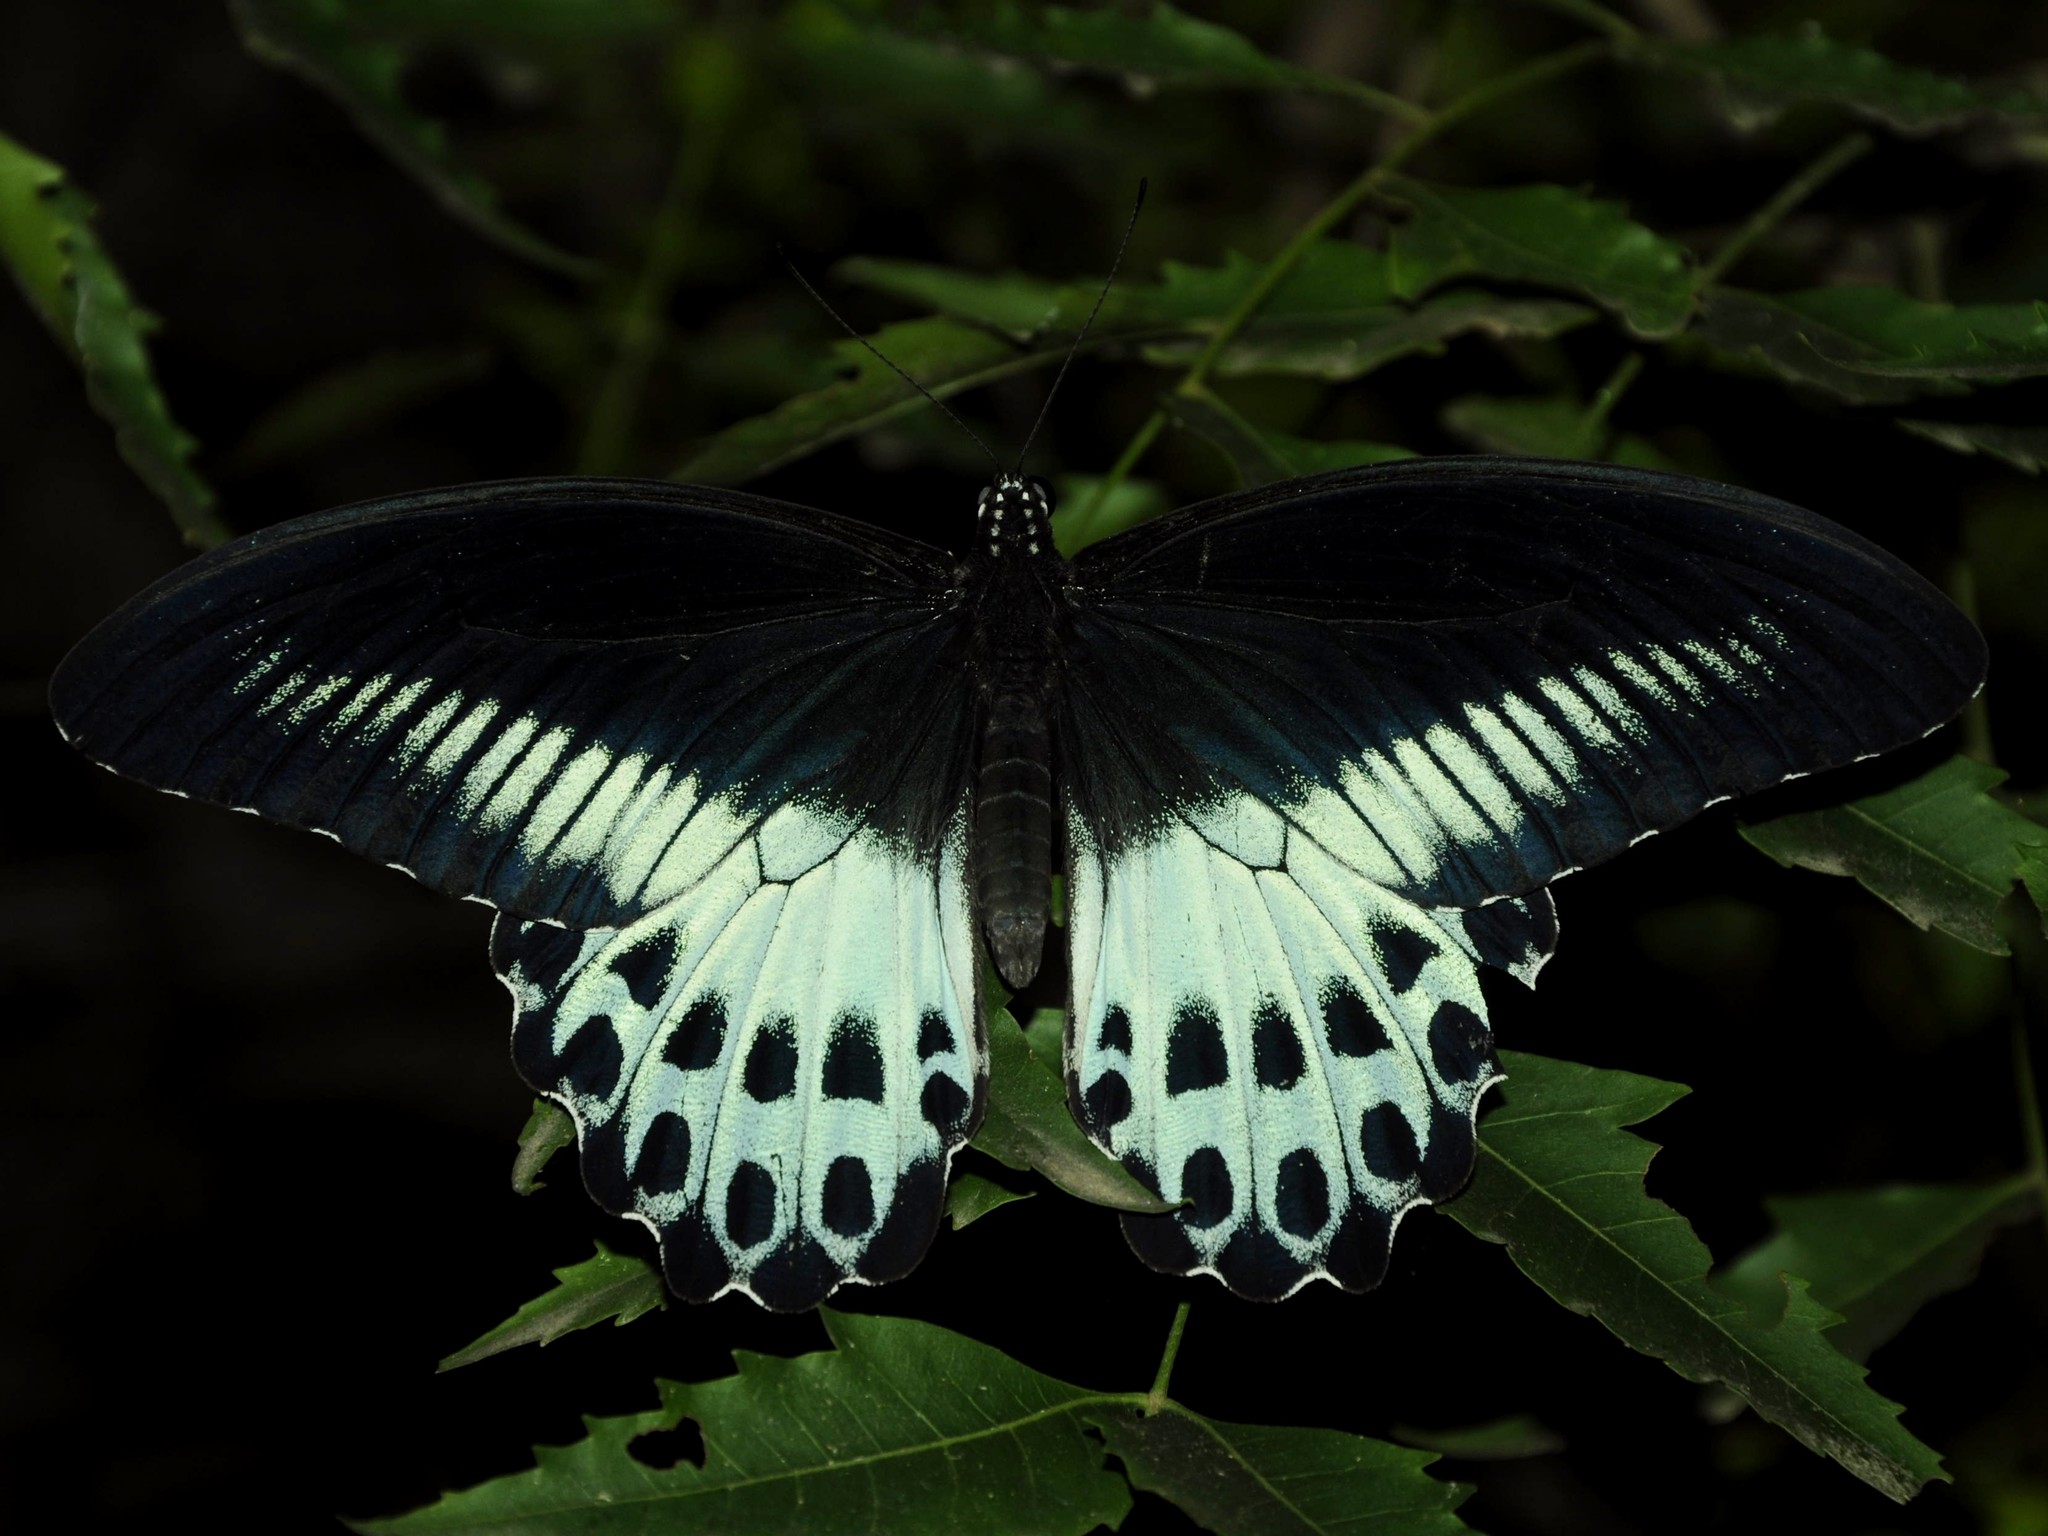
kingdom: Animalia
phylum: Arthropoda
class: Insecta
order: Lepidoptera
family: Papilionidae
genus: Papilio
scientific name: Papilio memnon
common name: Great mormon
